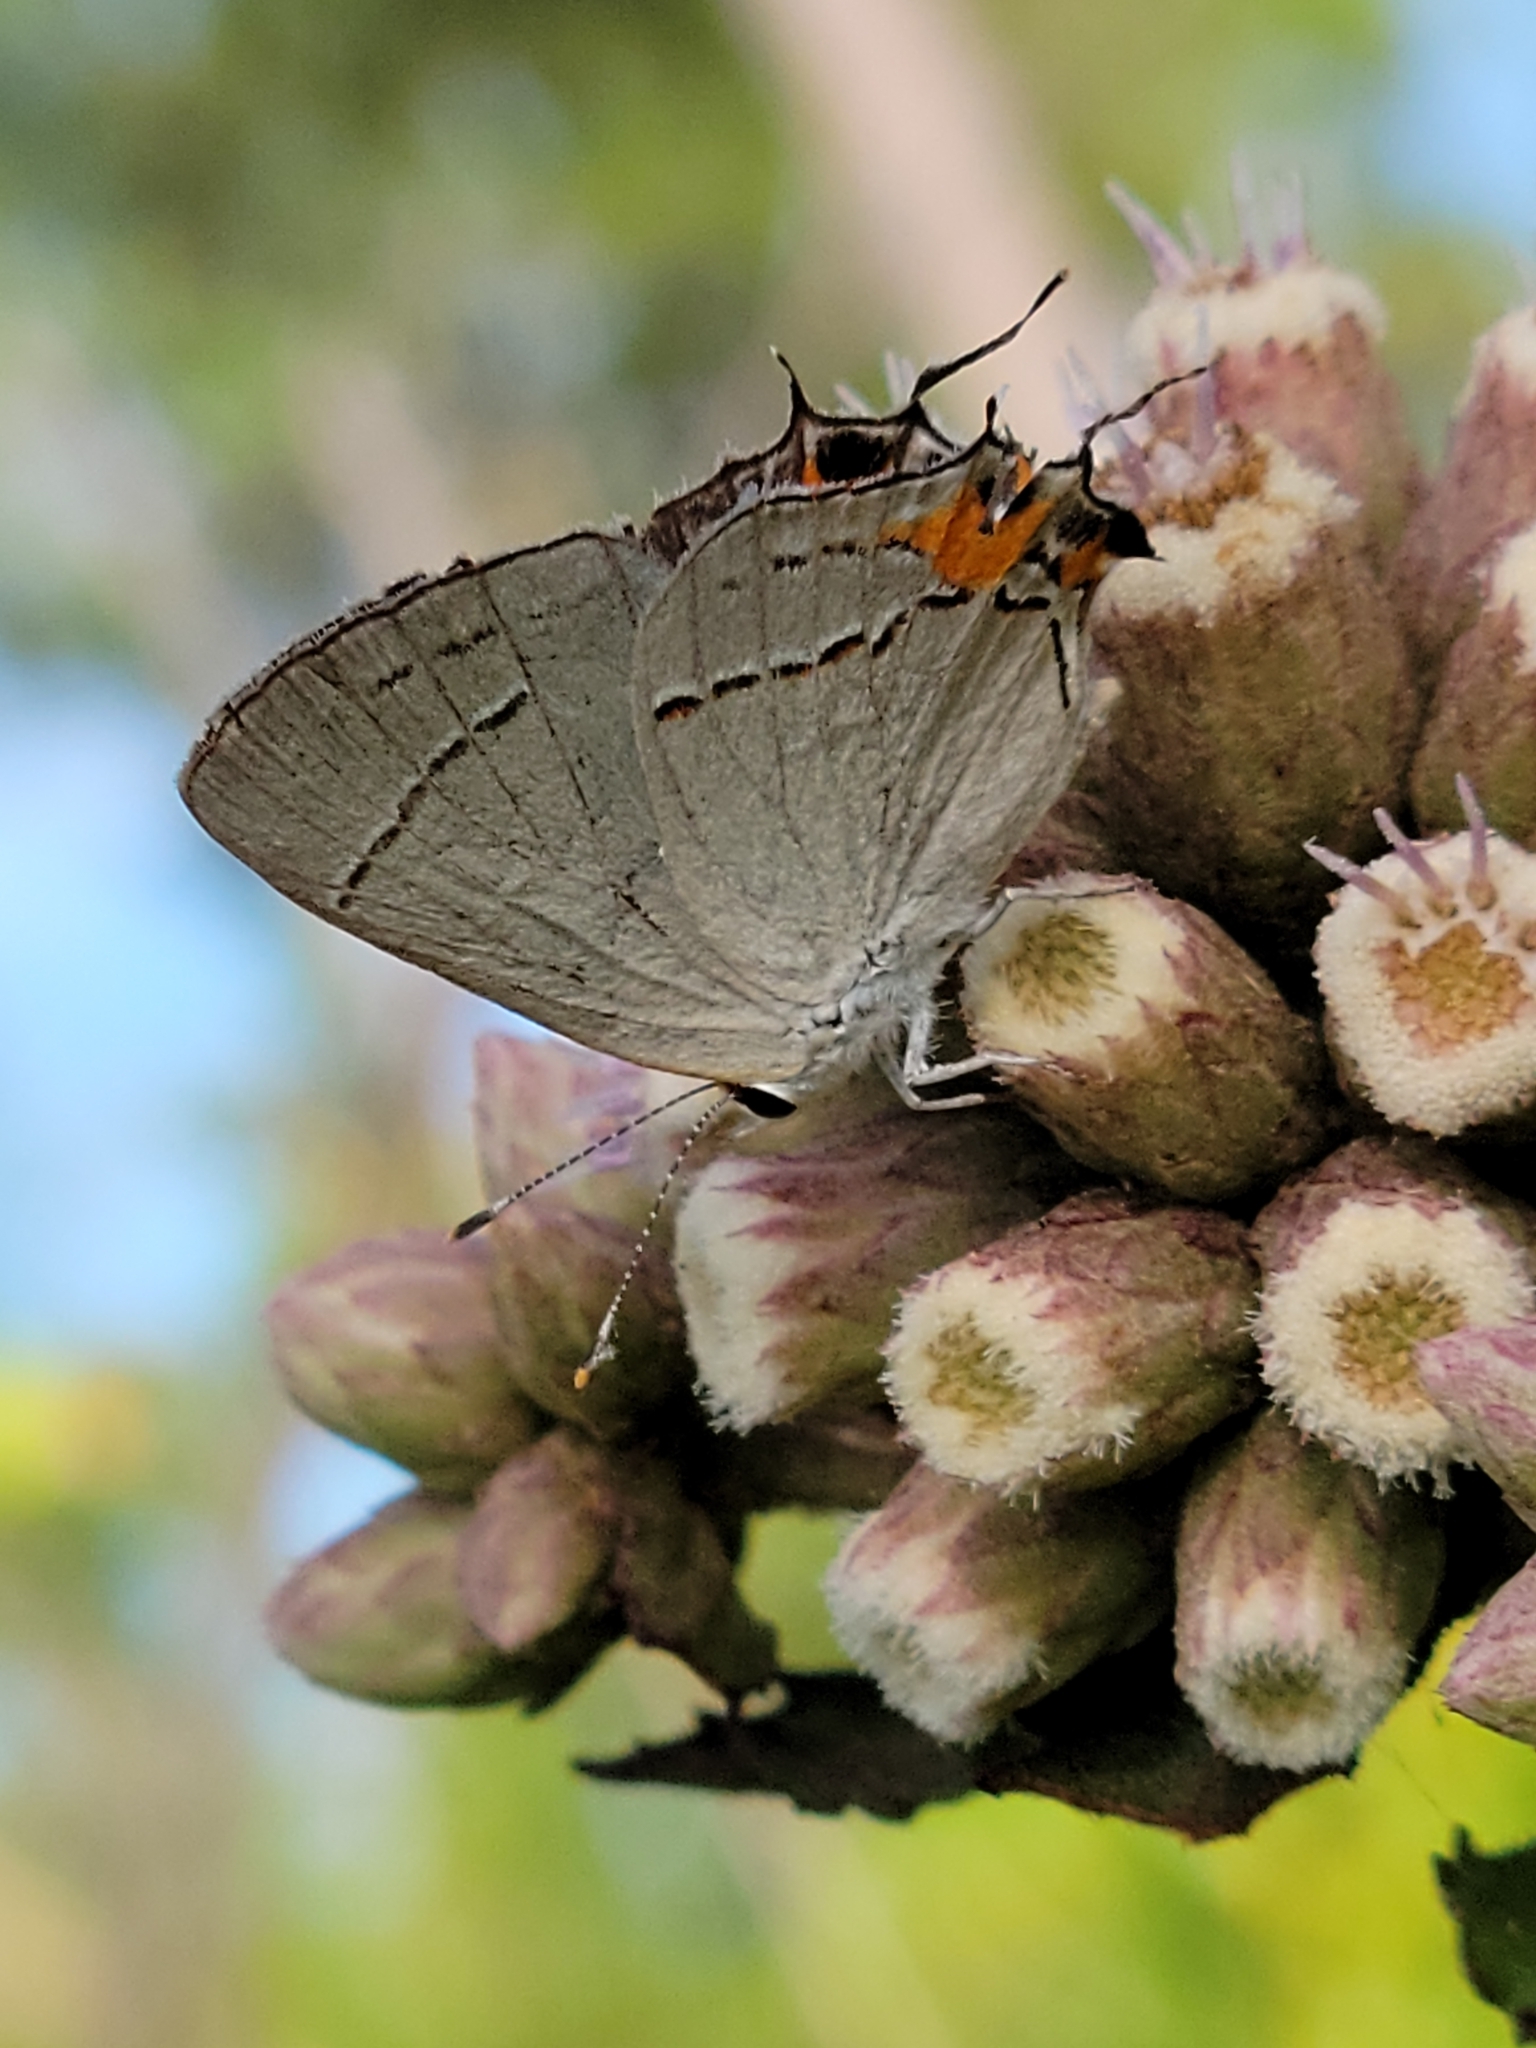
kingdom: Animalia
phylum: Arthropoda
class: Insecta
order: Lepidoptera
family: Lycaenidae
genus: Strymon
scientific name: Strymon melinus
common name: Gray hairstreak
